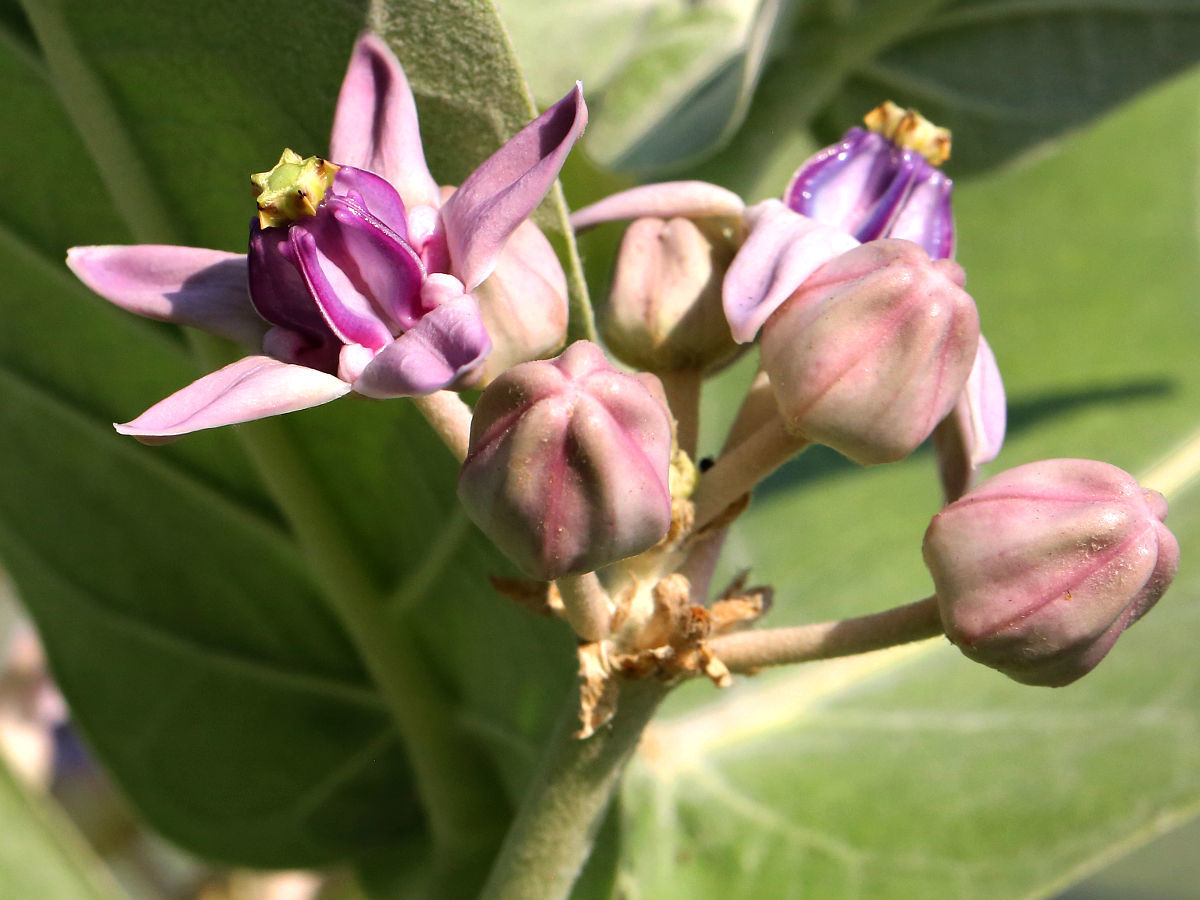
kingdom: Plantae
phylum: Tracheophyta
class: Magnoliopsida
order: Gentianales
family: Apocynaceae
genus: Calotropis
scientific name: Calotropis gigantea
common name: Crown flower
